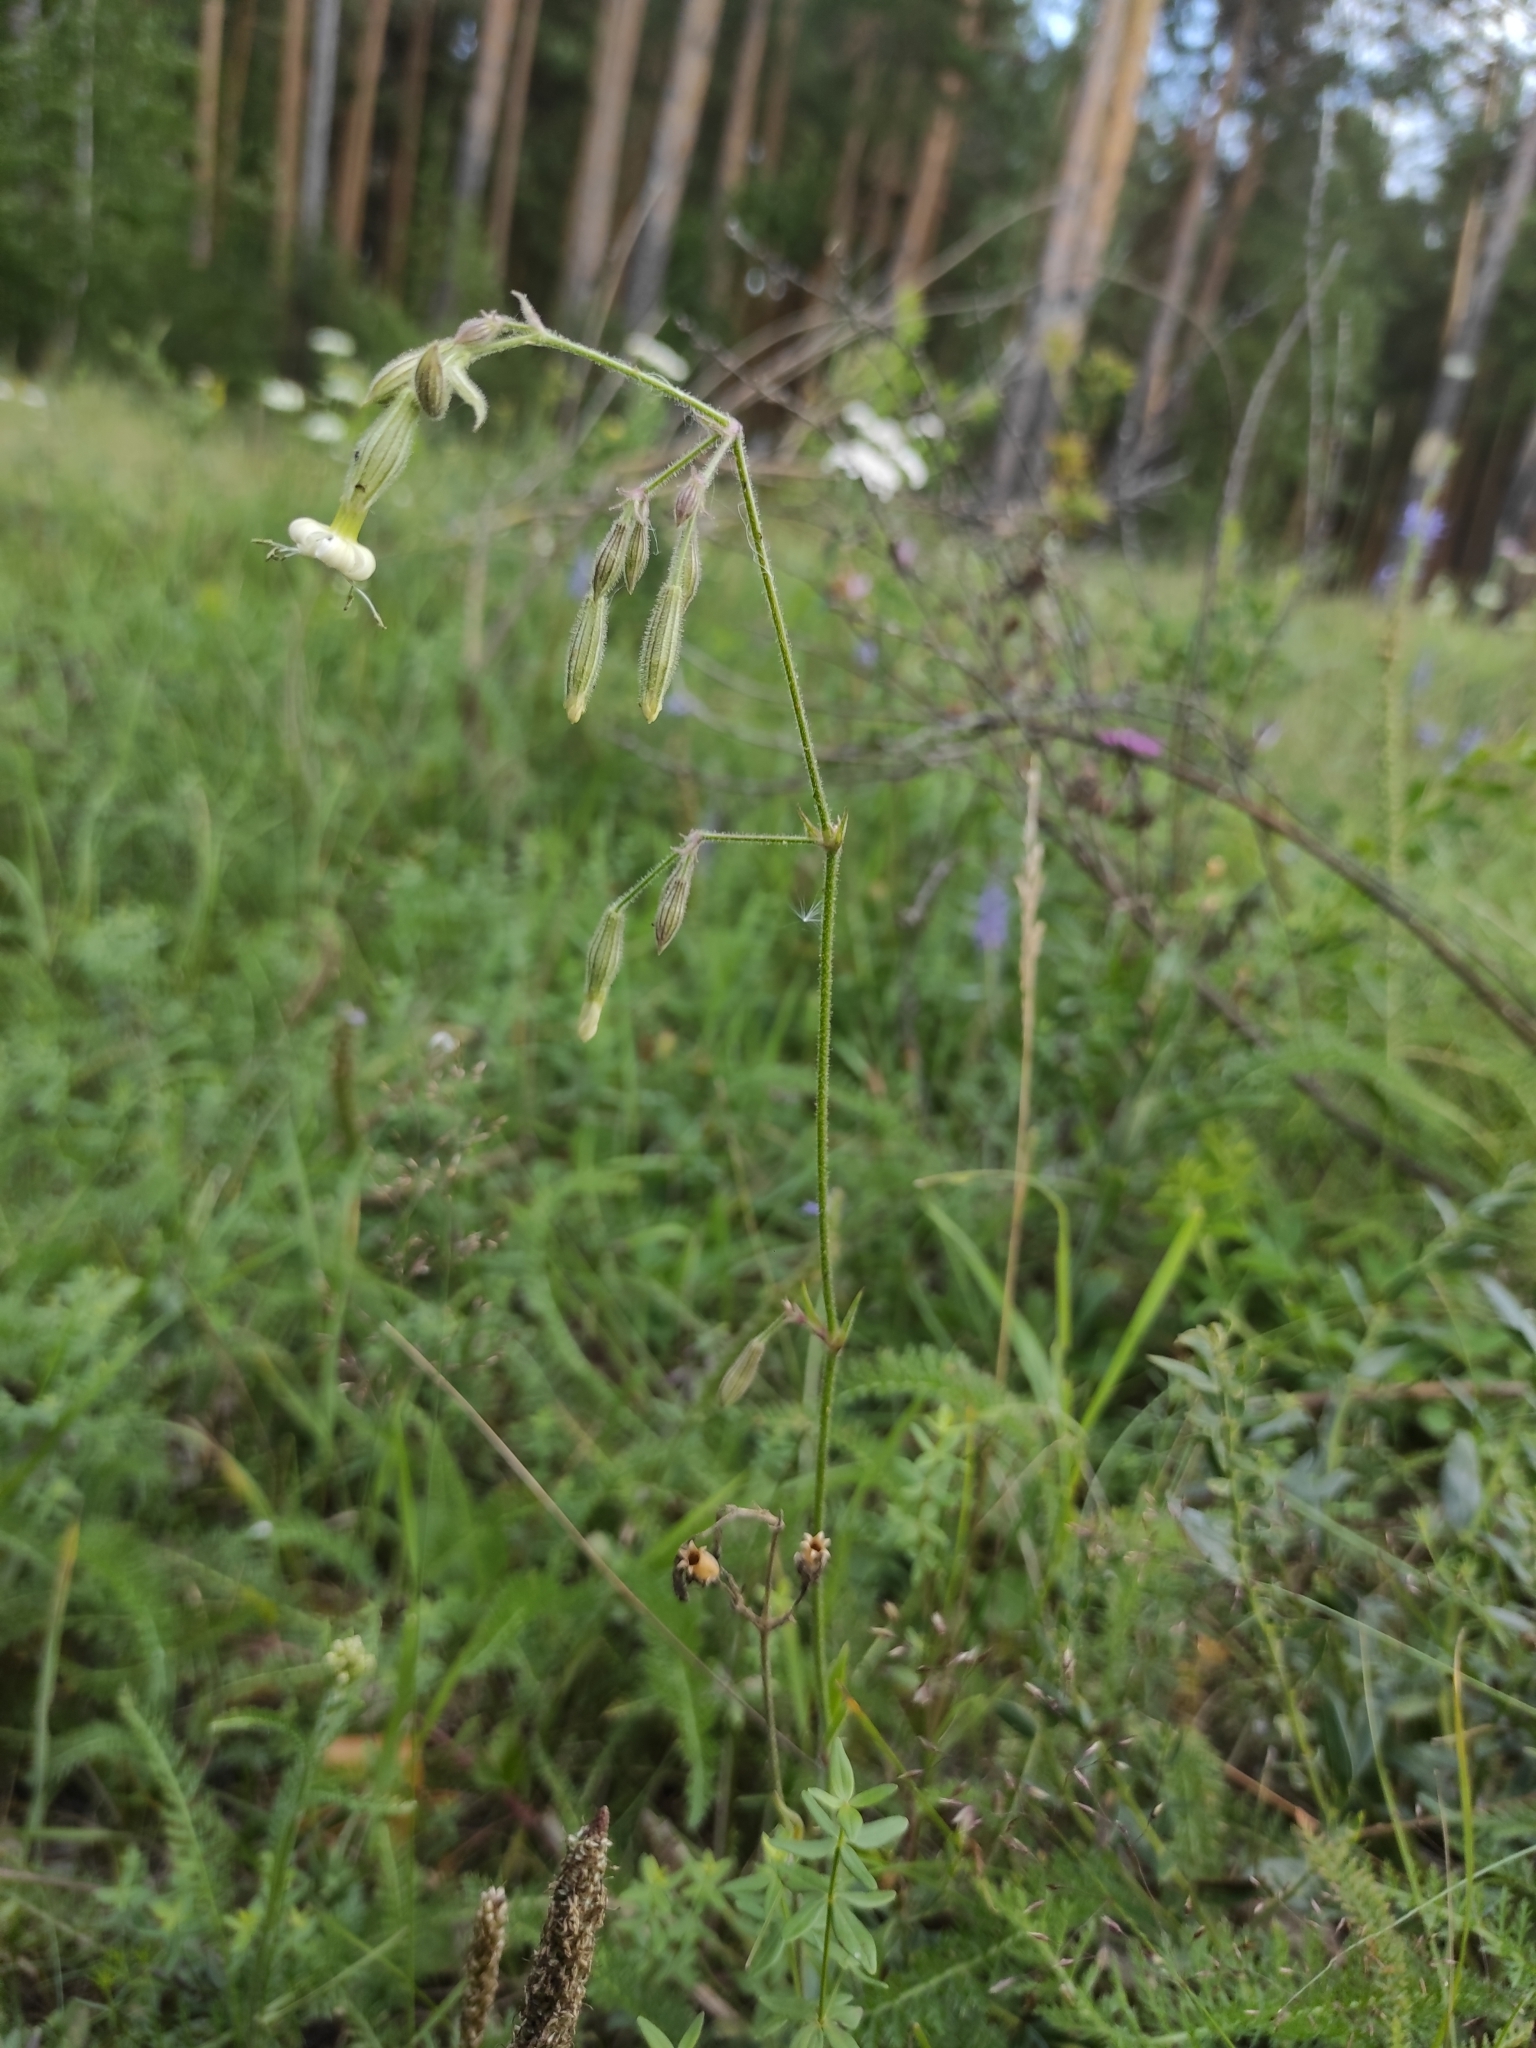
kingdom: Plantae
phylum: Tracheophyta
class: Magnoliopsida
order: Caryophyllales
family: Caryophyllaceae
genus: Silene
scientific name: Silene nutans
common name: Nottingham catchfly
